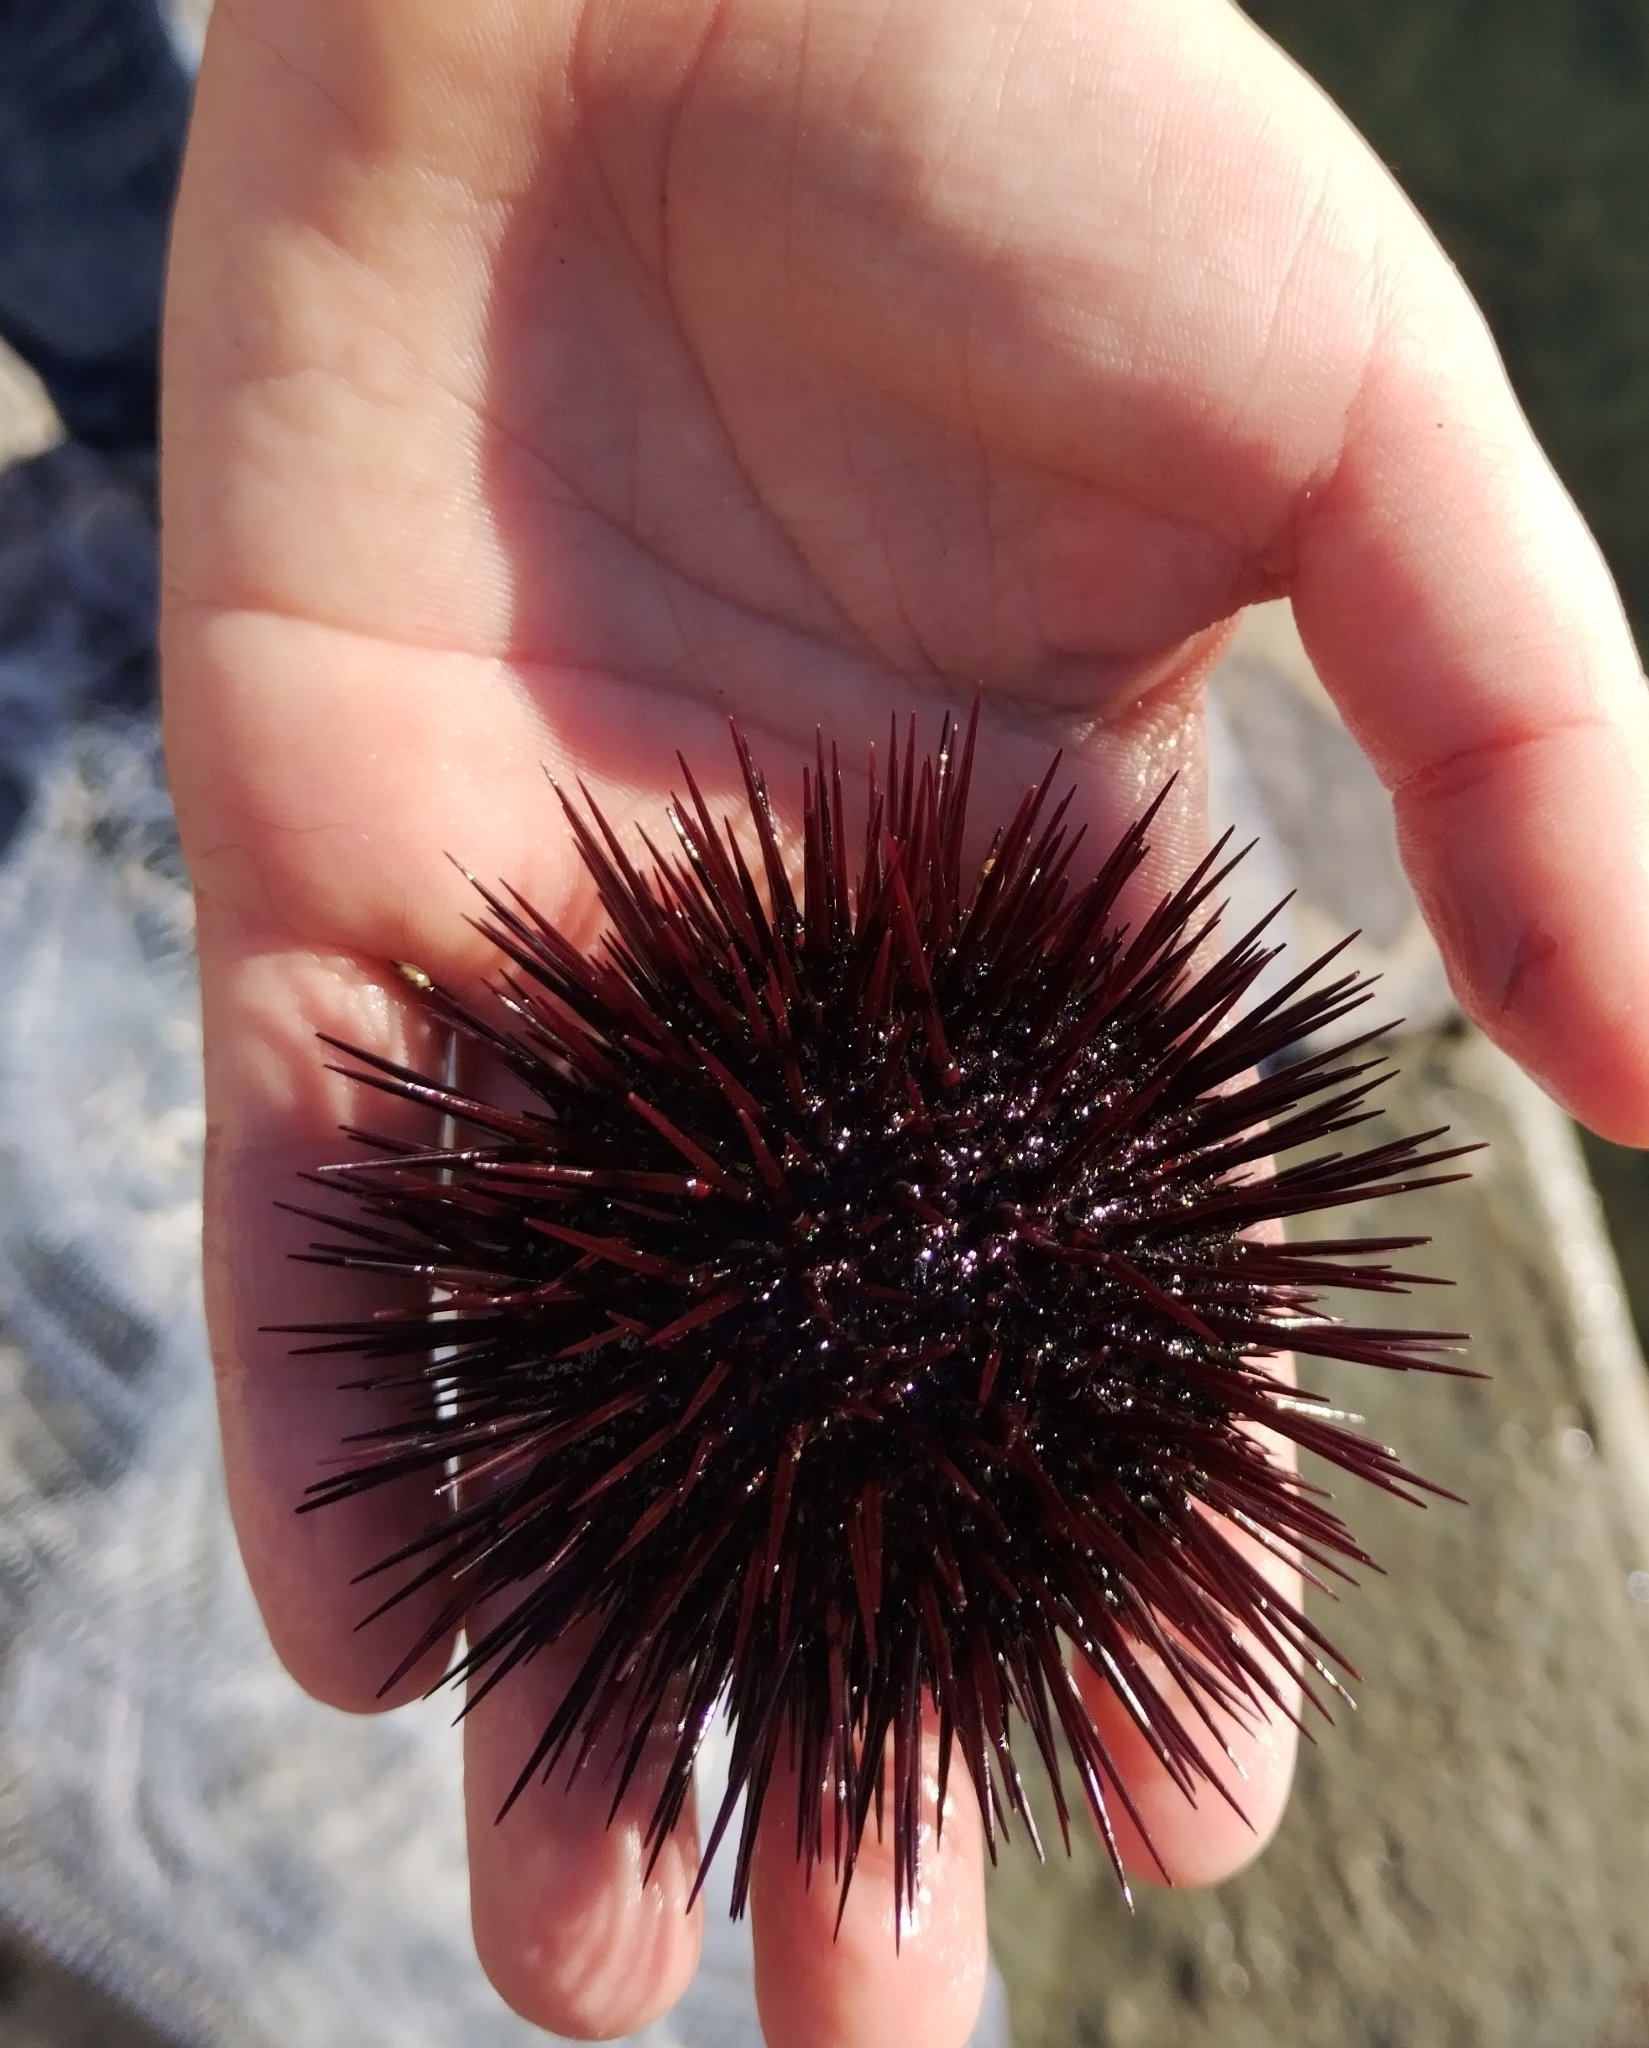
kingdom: Animalia
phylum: Echinodermata
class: Echinoidea
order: Camarodonta
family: Parechinidae
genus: Paracentrotus
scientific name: Paracentrotus lividus
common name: Purple sea urchin
